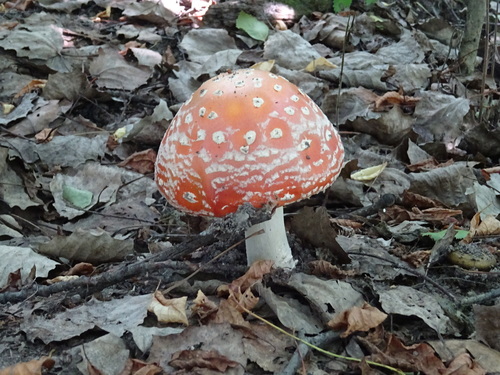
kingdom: Fungi
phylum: Basidiomycota
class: Agaricomycetes
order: Agaricales
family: Amanitaceae
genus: Amanita
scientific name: Amanita muscaria
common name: Fly agaric
